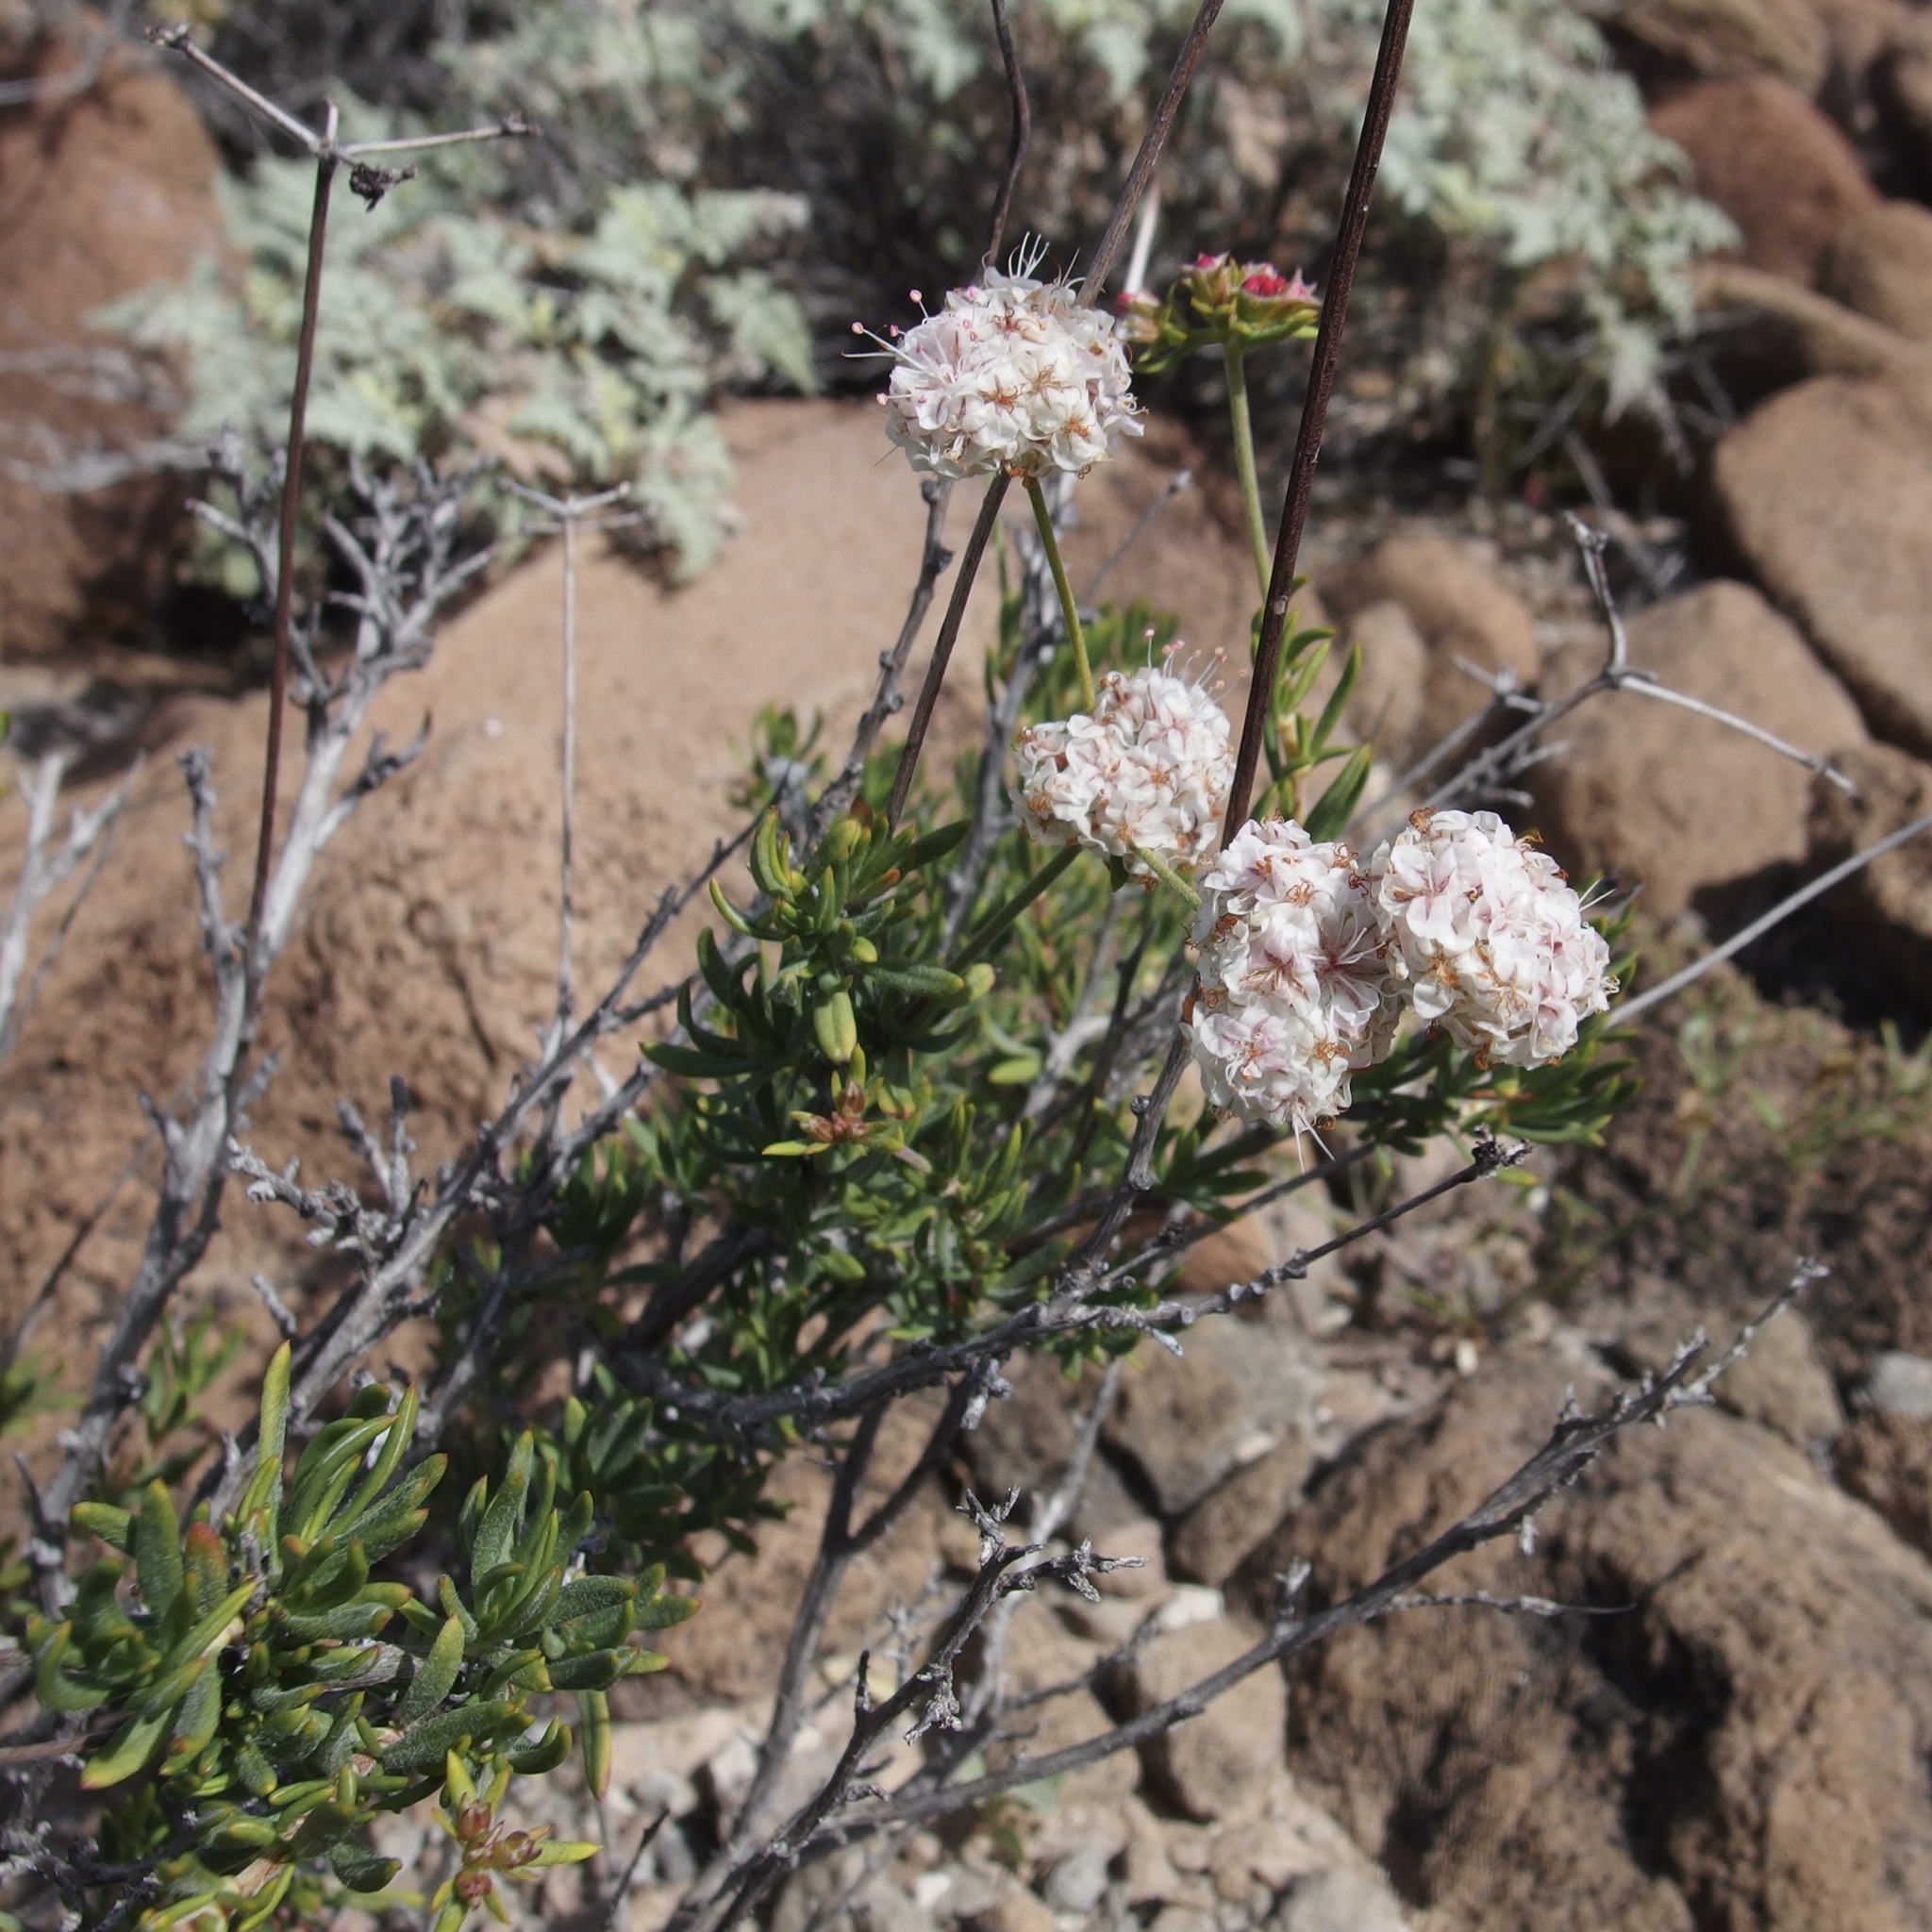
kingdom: Plantae
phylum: Tracheophyta
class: Magnoliopsida
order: Caryophyllales
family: Polygonaceae
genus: Eriogonum
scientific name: Eriogonum fasciculatum
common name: California wild buckwheat
